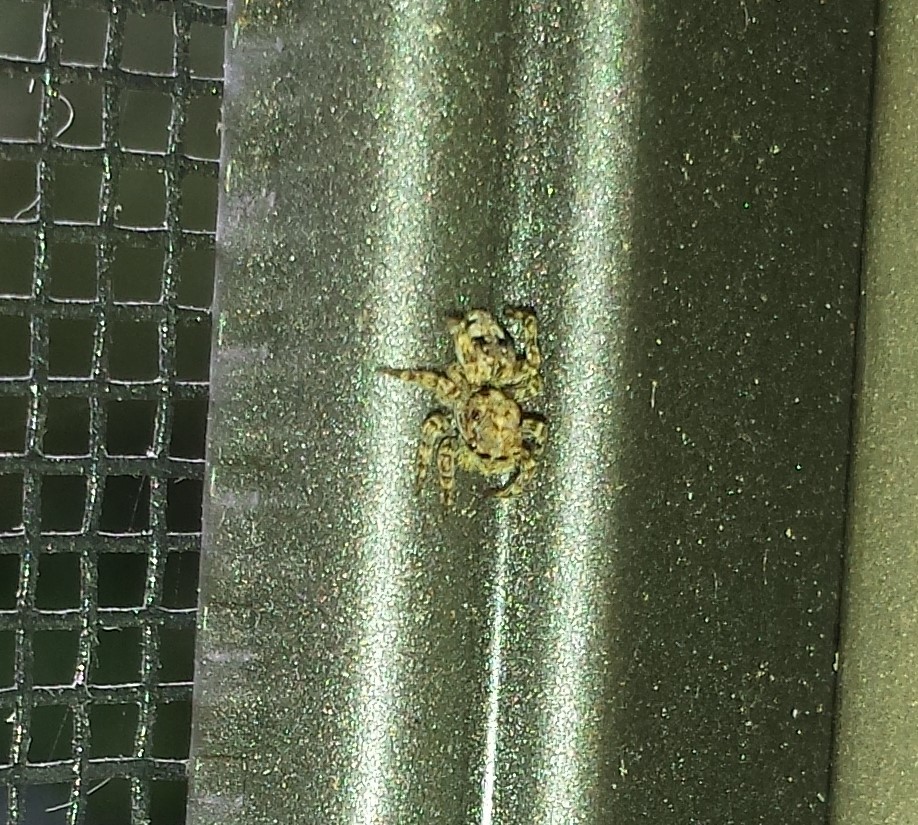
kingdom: Animalia
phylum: Arthropoda
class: Arachnida
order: Araneae
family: Salticidae
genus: Attulus
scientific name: Attulus fasciger
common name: Asiatic wall jumping spider
